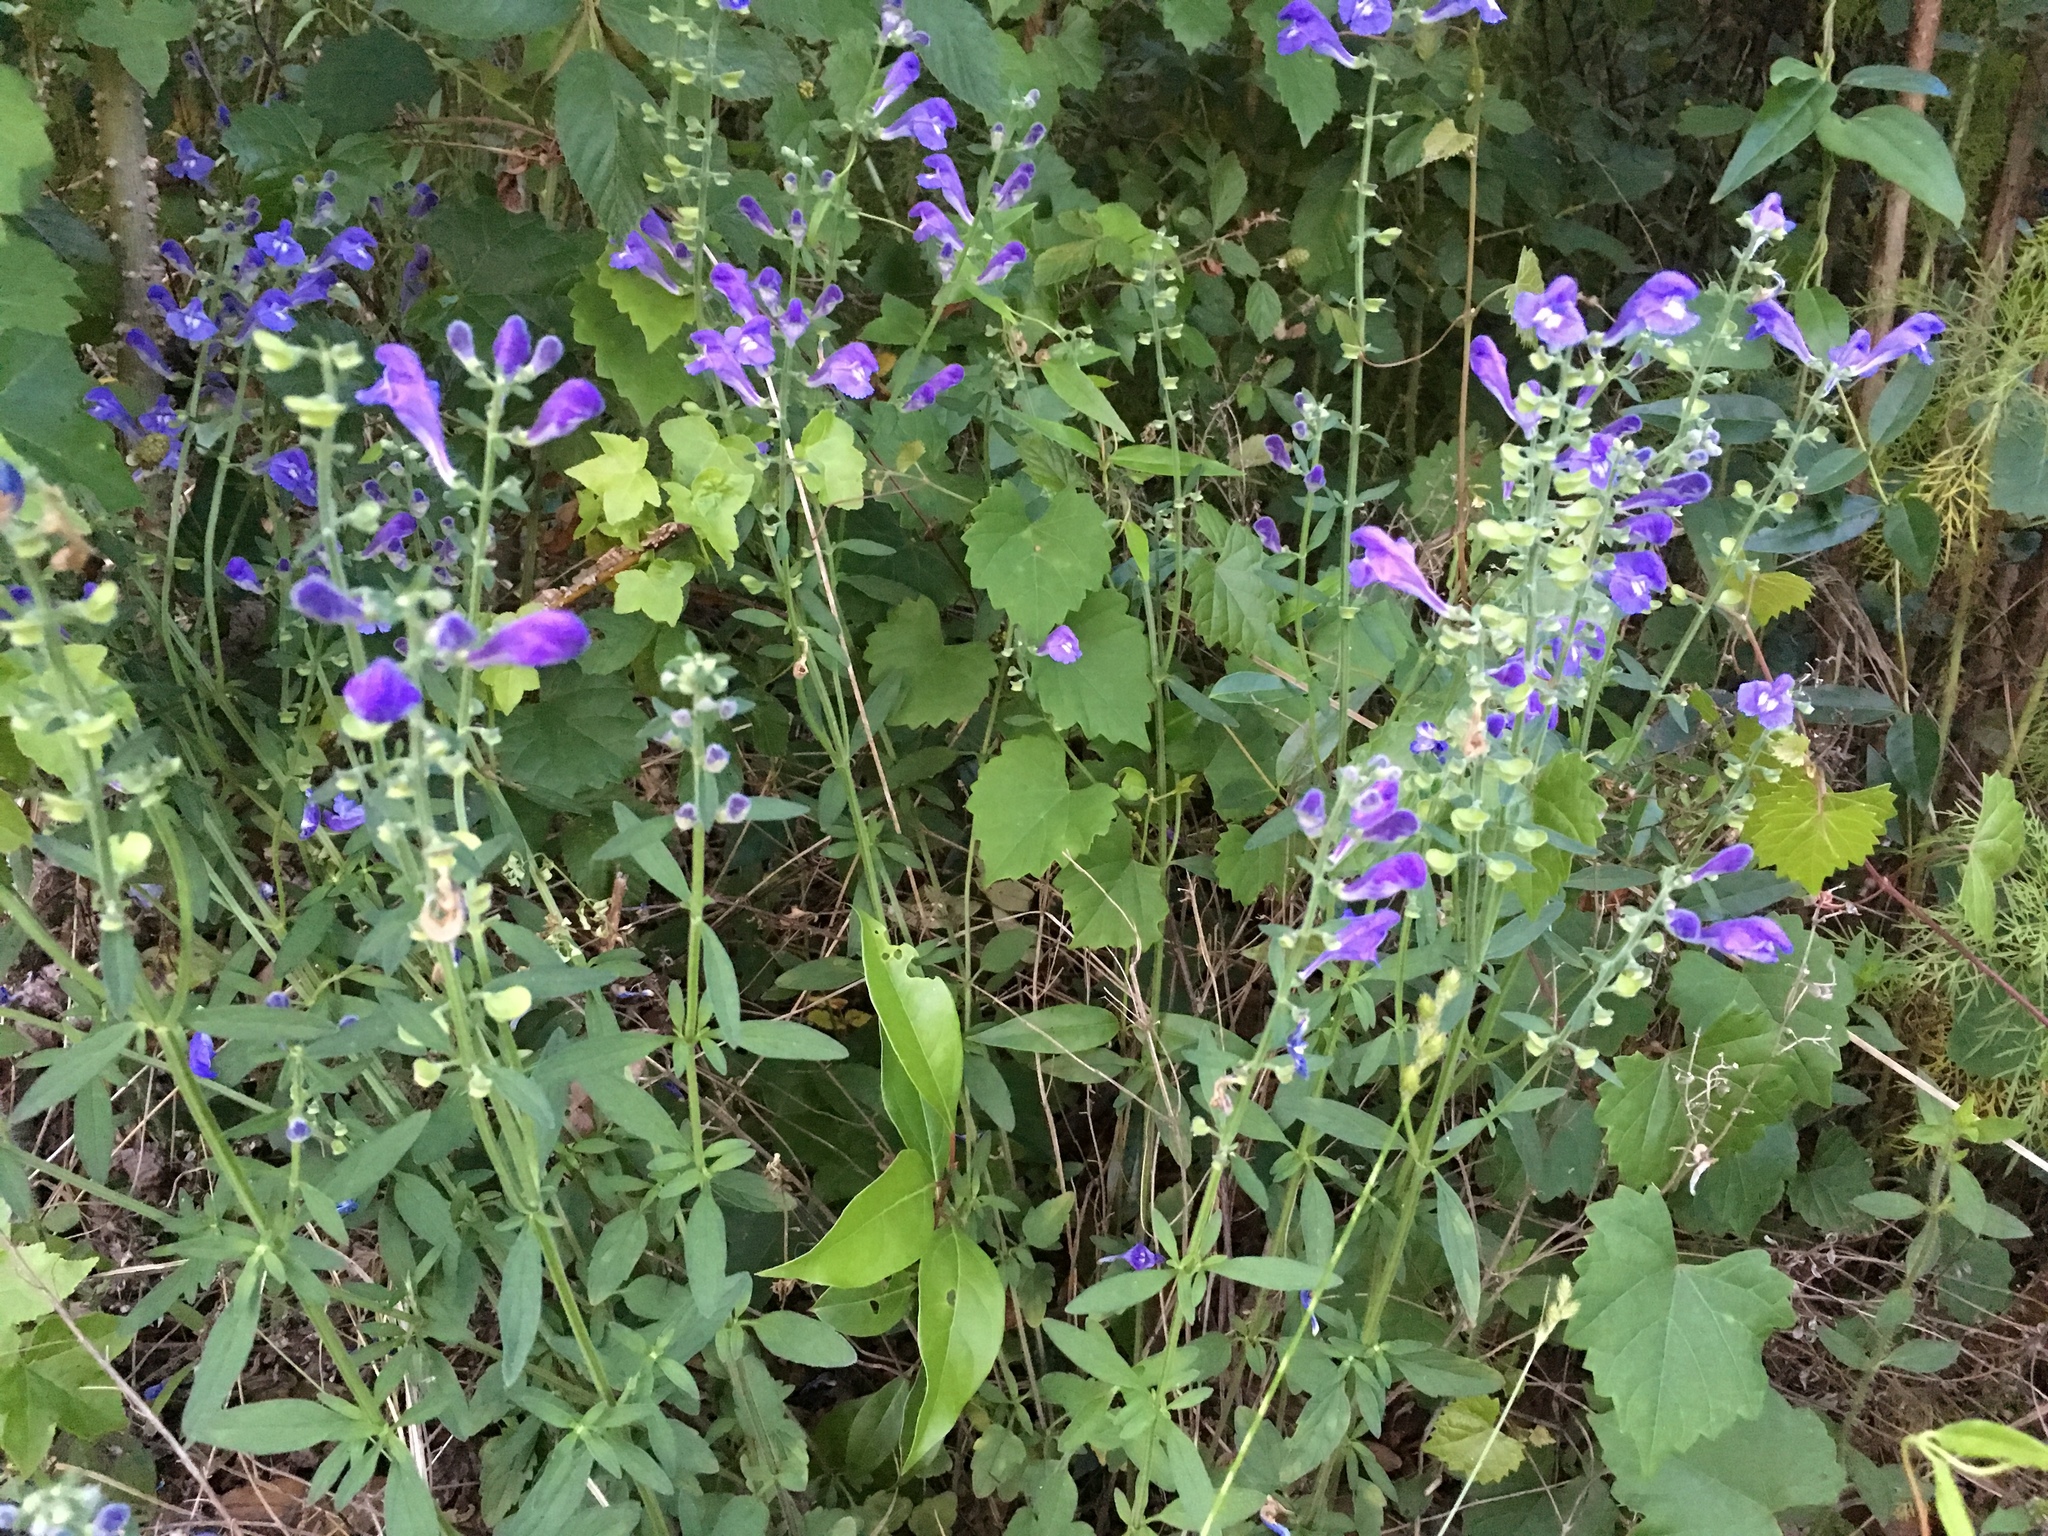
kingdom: Plantae
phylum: Tracheophyta
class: Magnoliopsida
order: Lamiales
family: Lamiaceae
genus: Scutellaria
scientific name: Scutellaria integrifolia
